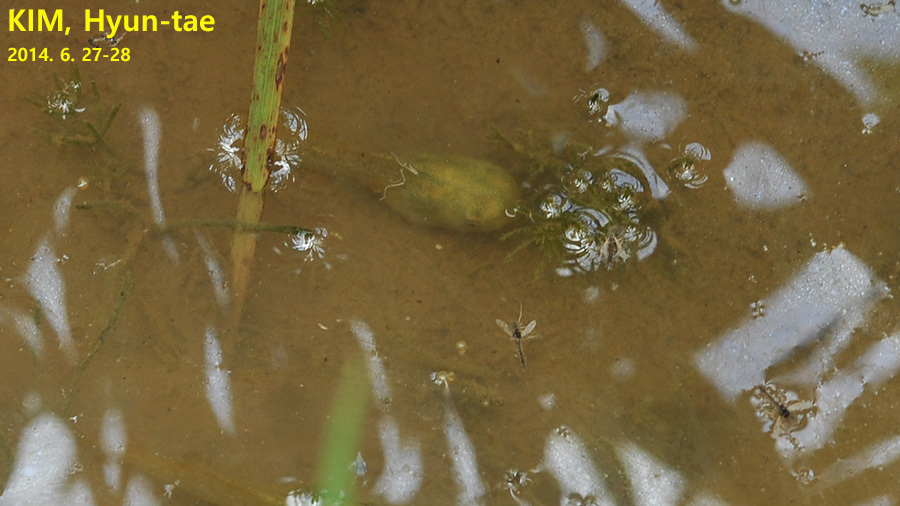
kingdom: Animalia
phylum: Chordata
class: Amphibia
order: Anura
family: Hylidae
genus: Dryophytes
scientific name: Dryophytes immaculatus
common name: North china treefrog
